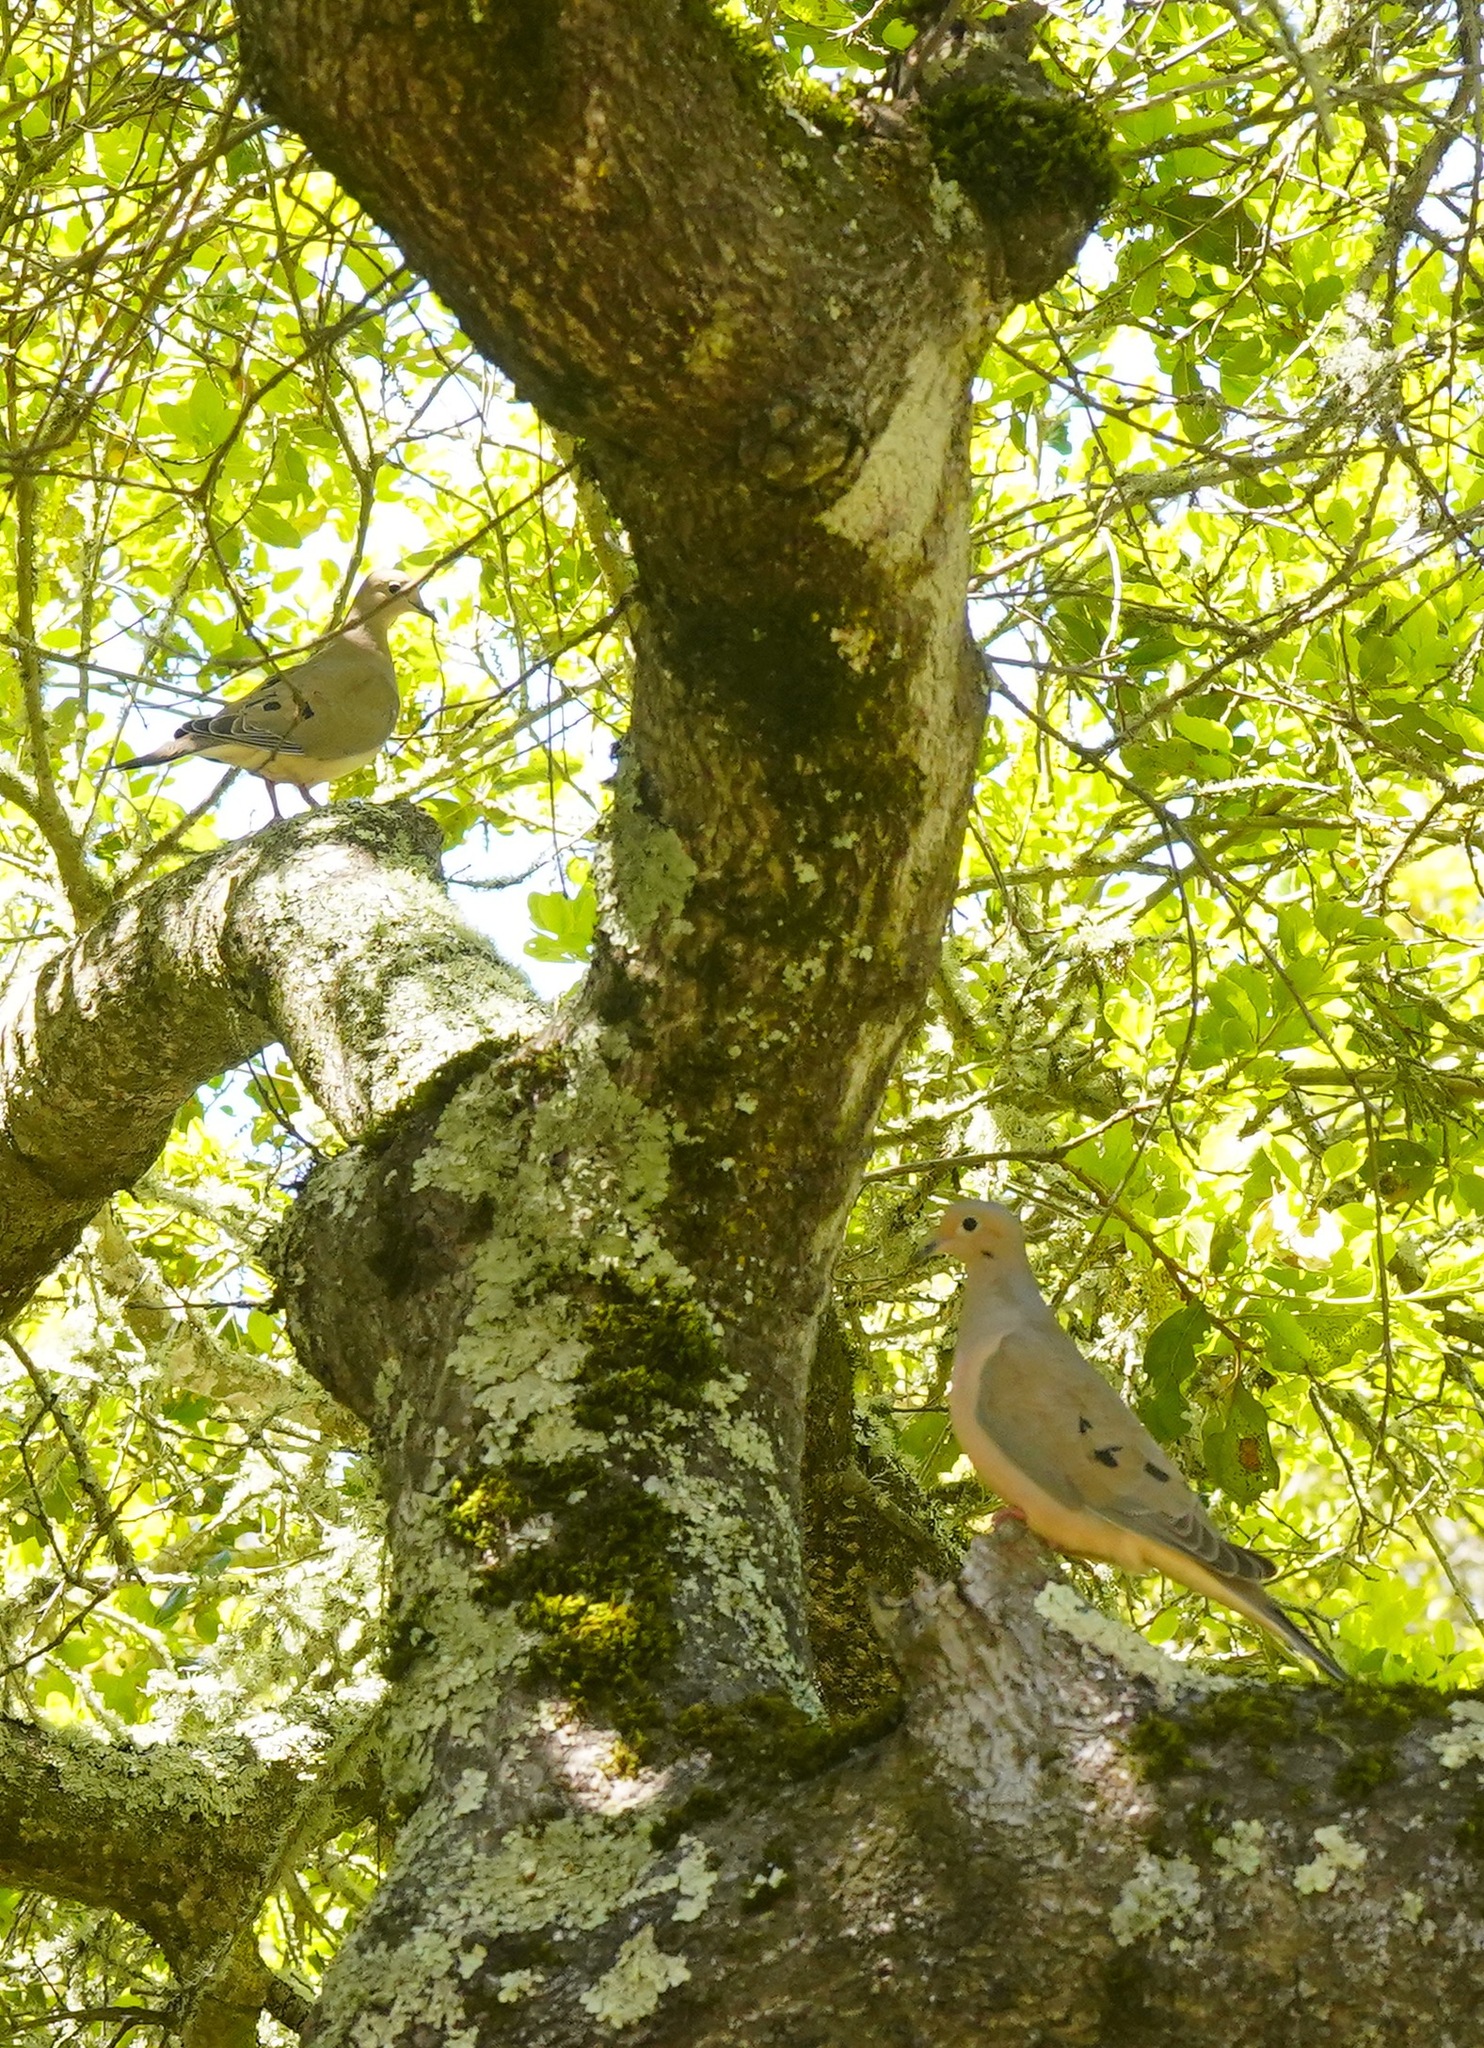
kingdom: Animalia
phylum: Chordata
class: Aves
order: Columbiformes
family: Columbidae
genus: Zenaida
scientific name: Zenaida macroura
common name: Mourning dove
